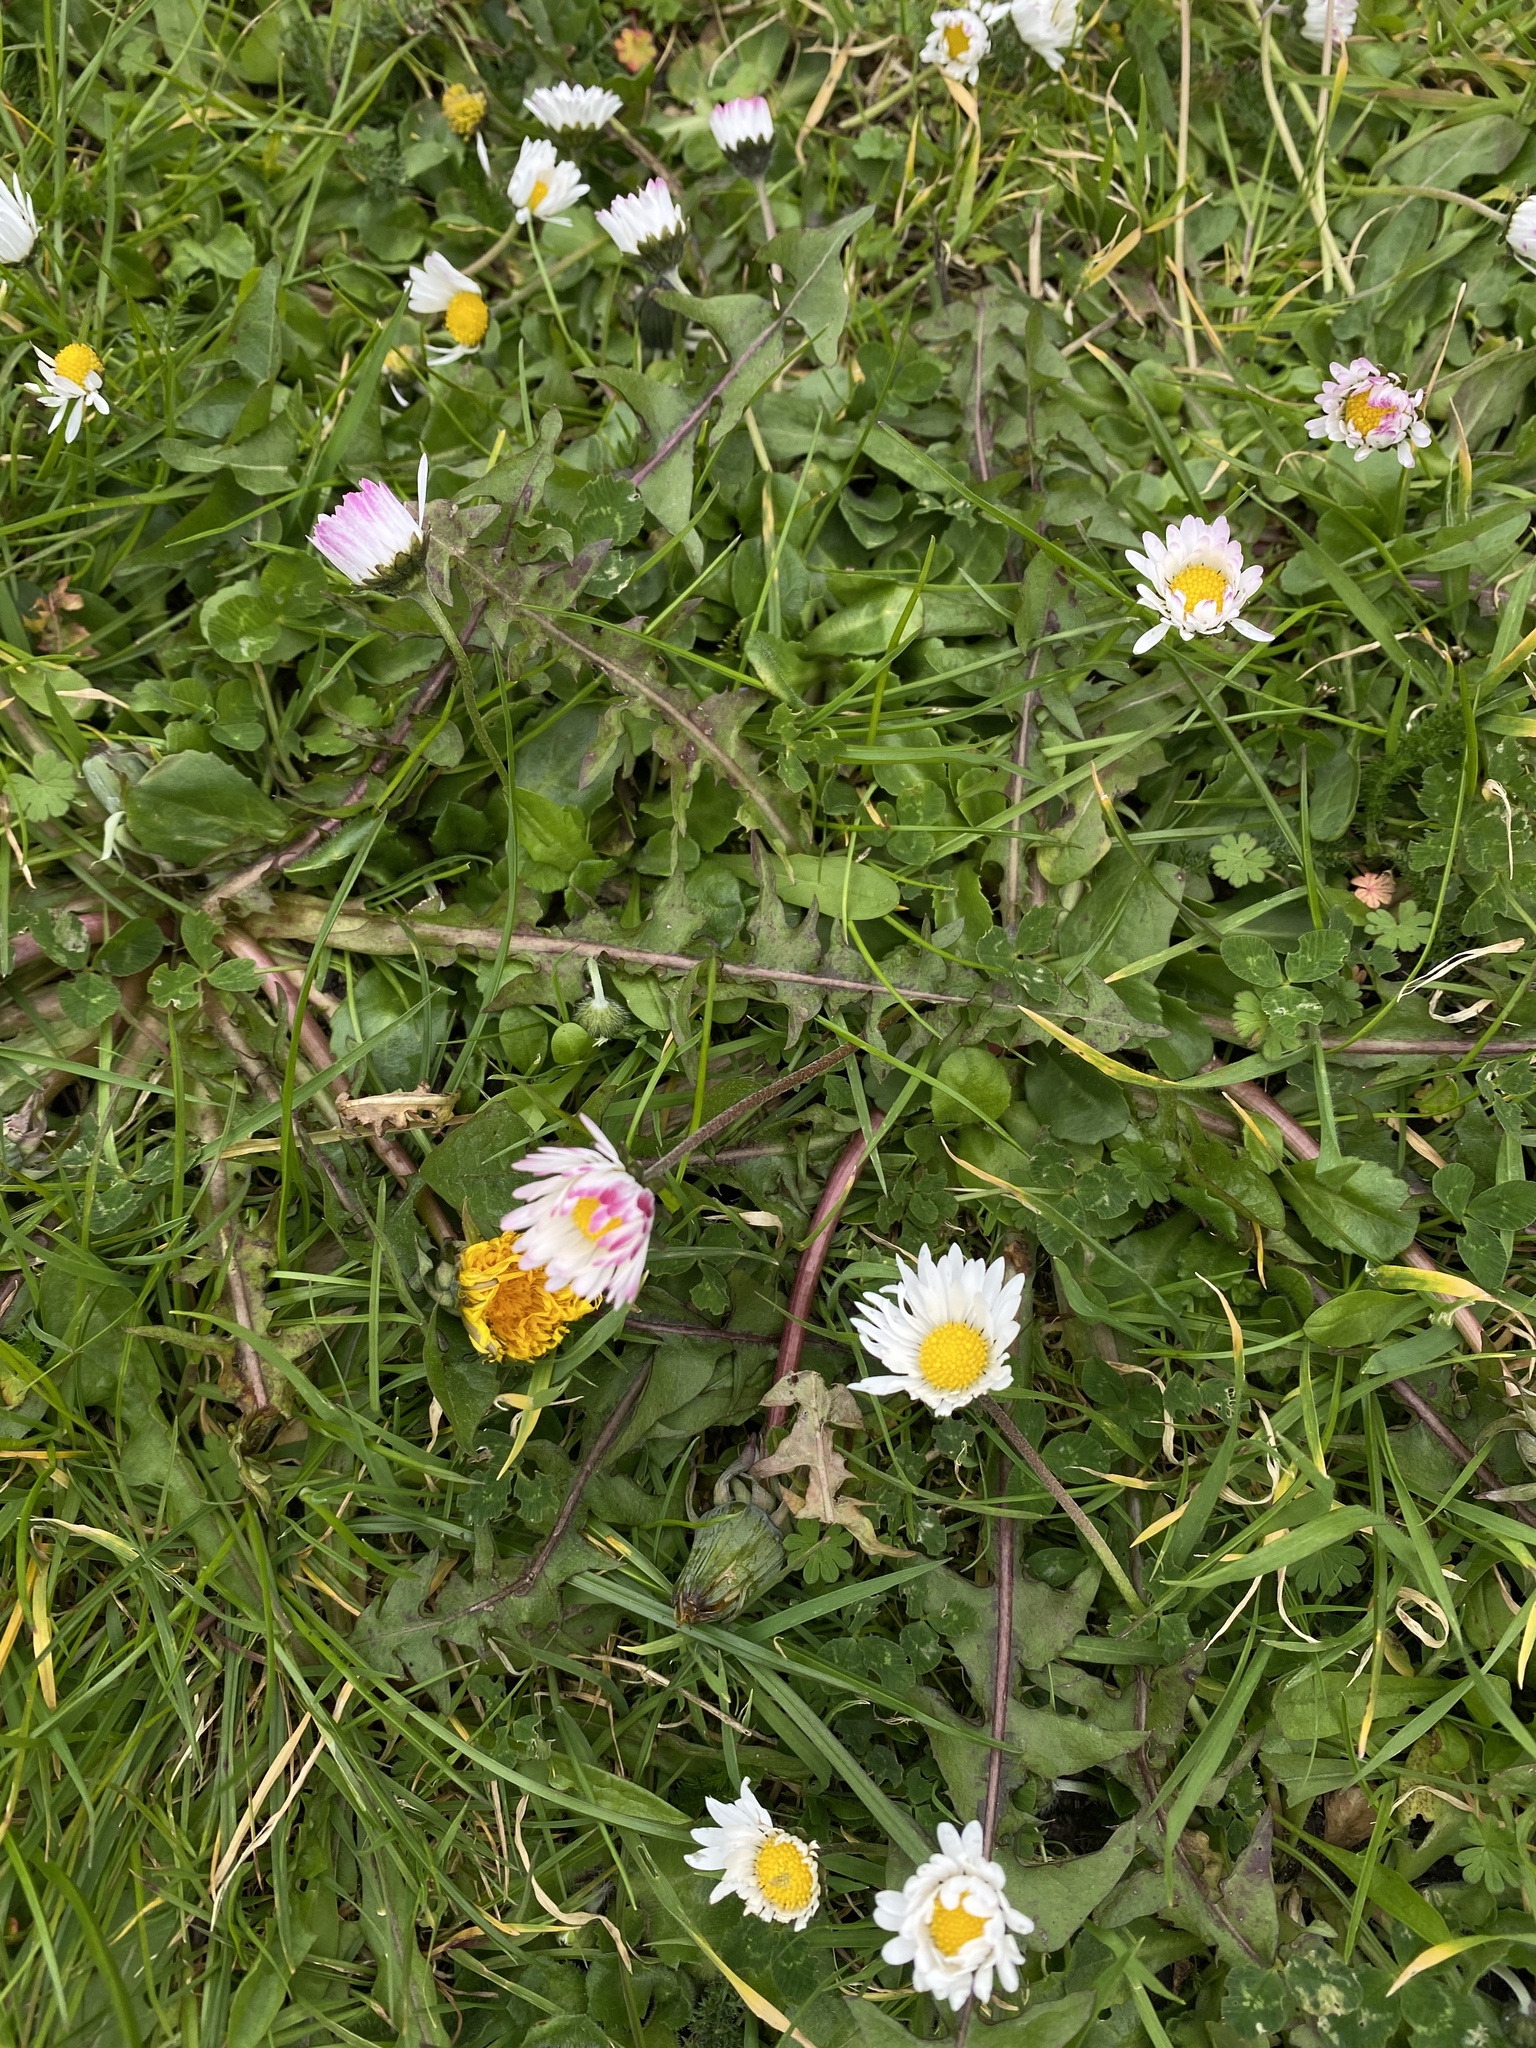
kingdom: Plantae
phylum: Tracheophyta
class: Magnoliopsida
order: Asterales
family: Asteraceae
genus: Bellis
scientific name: Bellis perennis
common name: Lawndaisy
